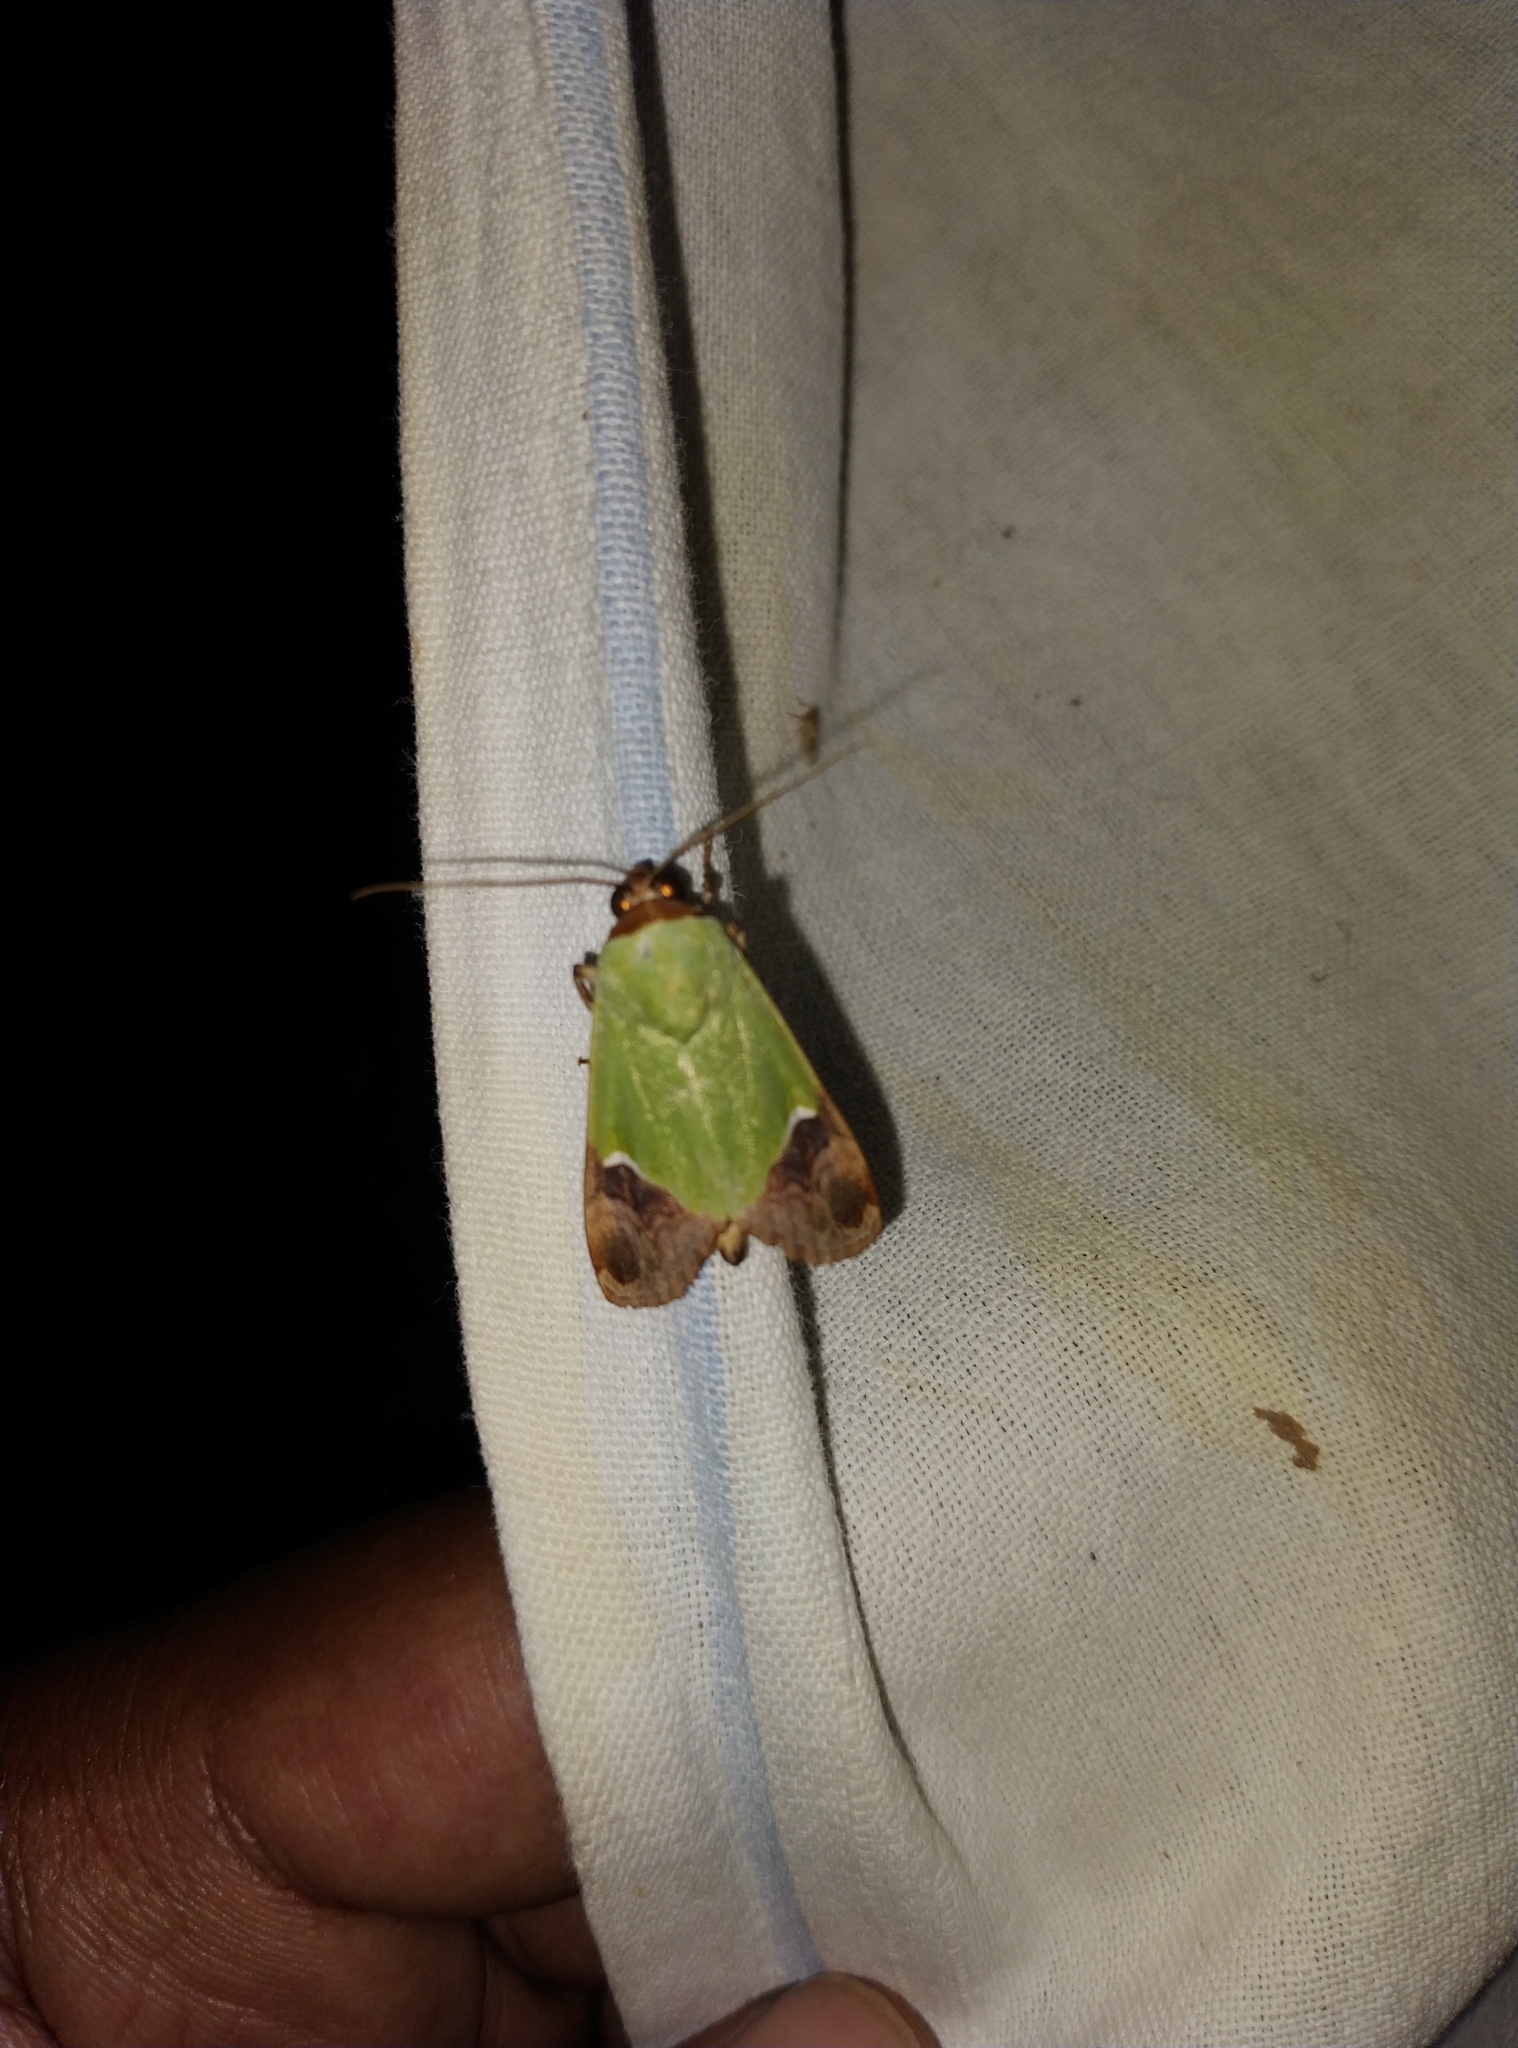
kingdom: Animalia
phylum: Arthropoda
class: Insecta
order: Lepidoptera
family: Erebidae
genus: Hemichloridia
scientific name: Hemichloridia euprepia
